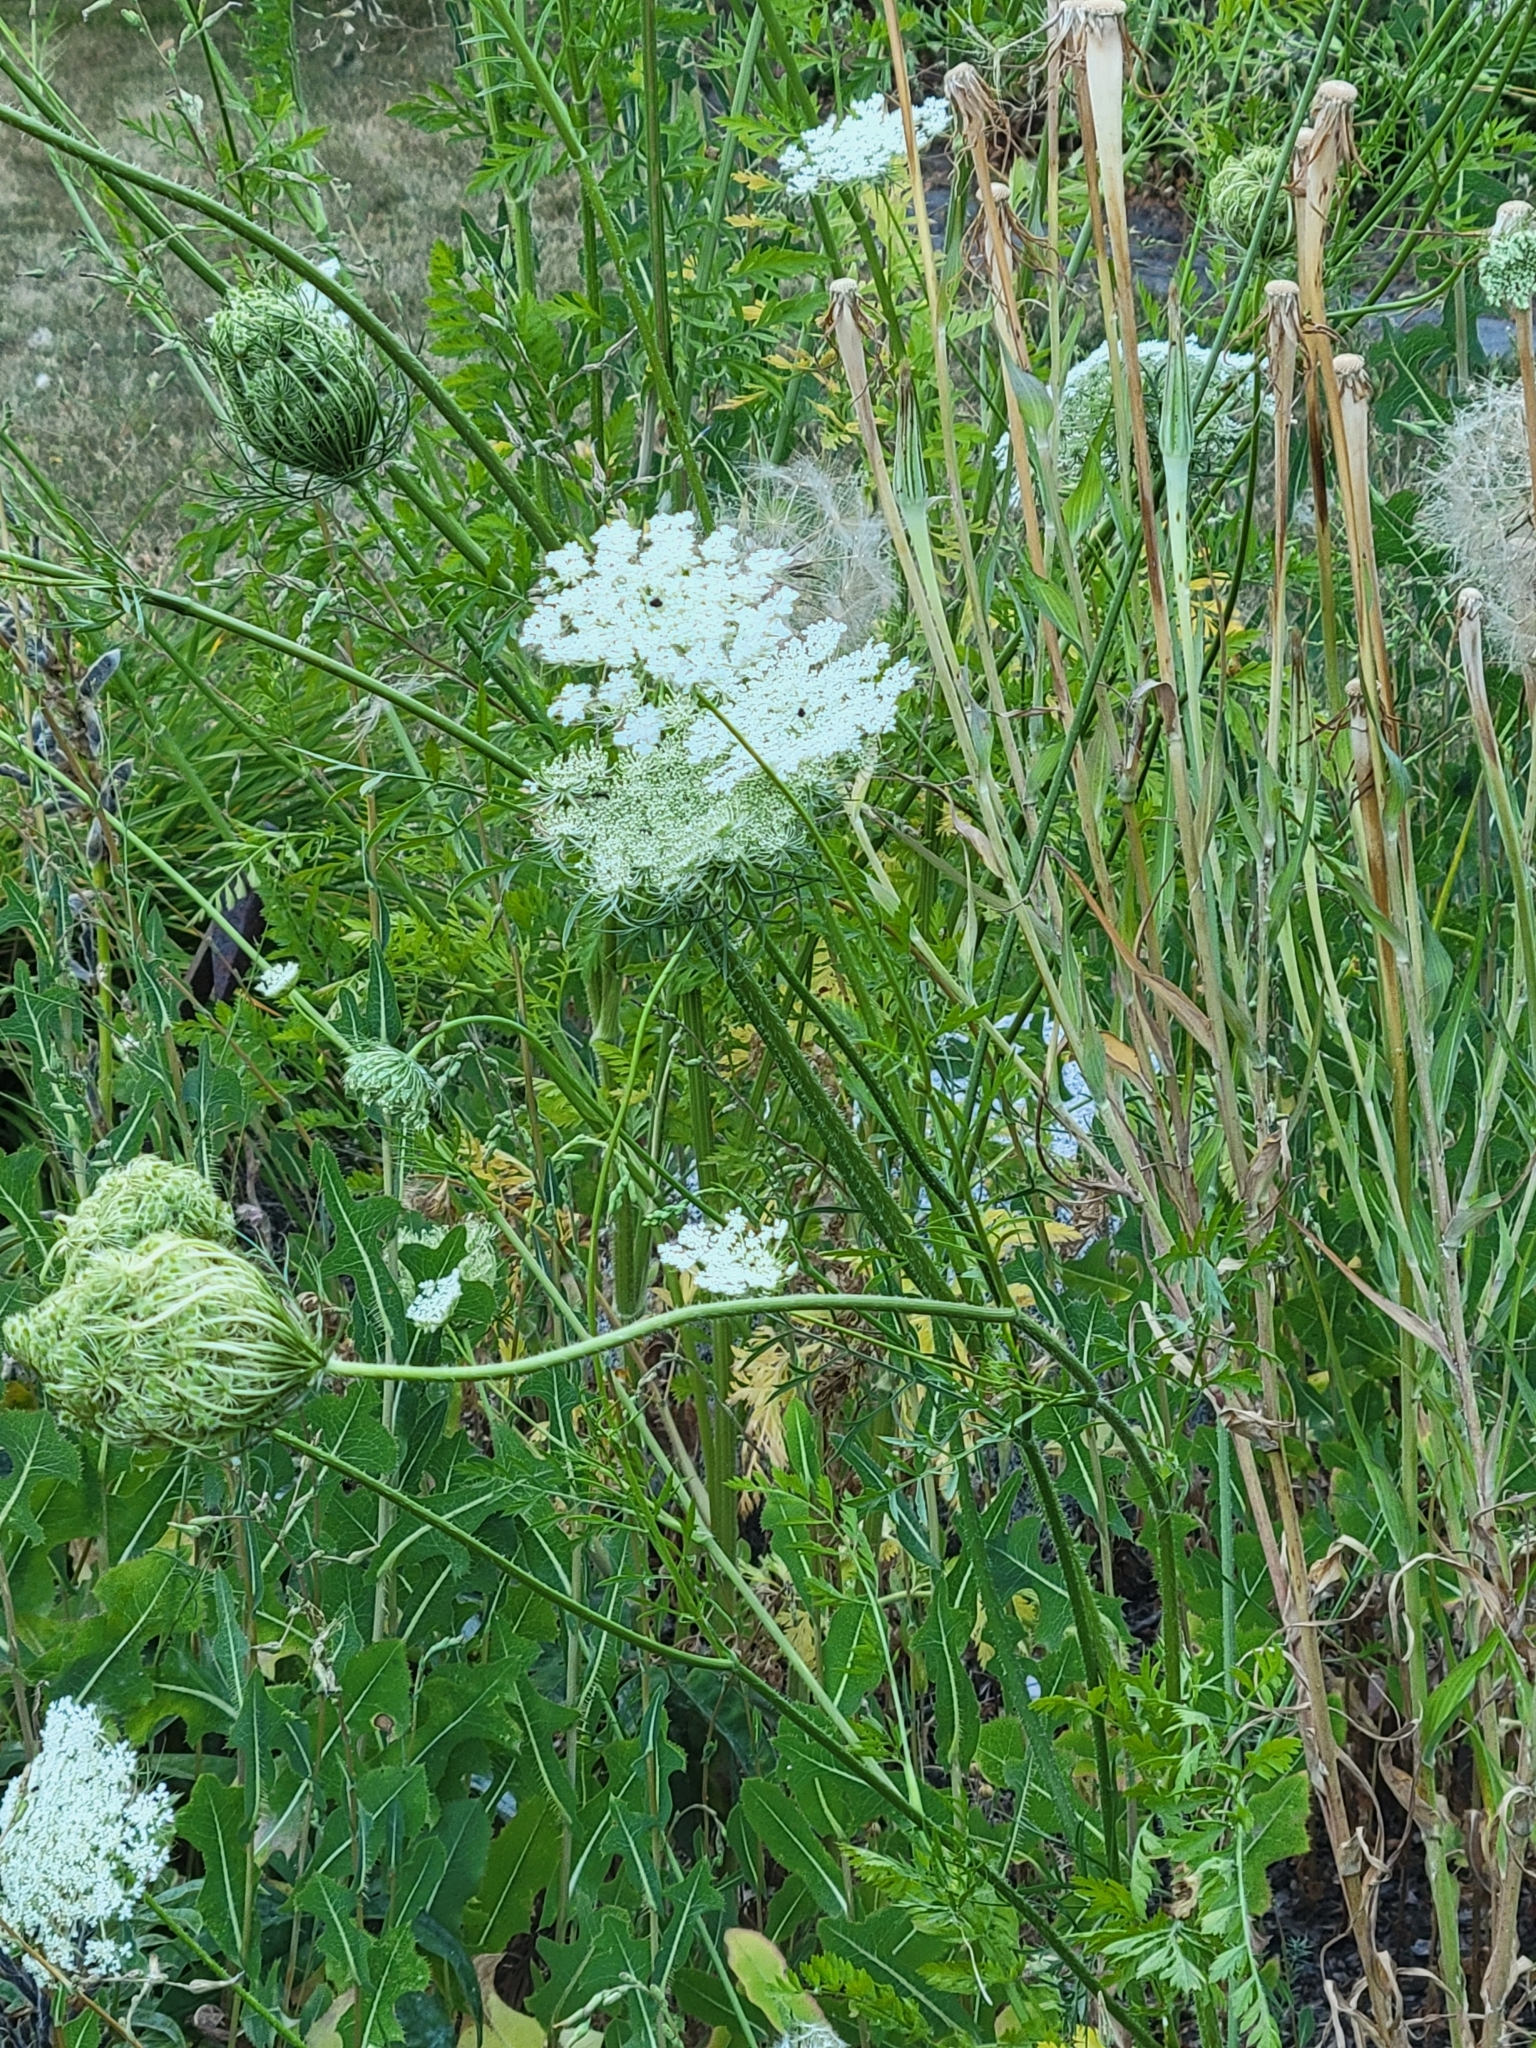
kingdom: Plantae
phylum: Tracheophyta
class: Magnoliopsida
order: Apiales
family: Apiaceae
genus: Daucus
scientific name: Daucus carota
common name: Wild carrot
